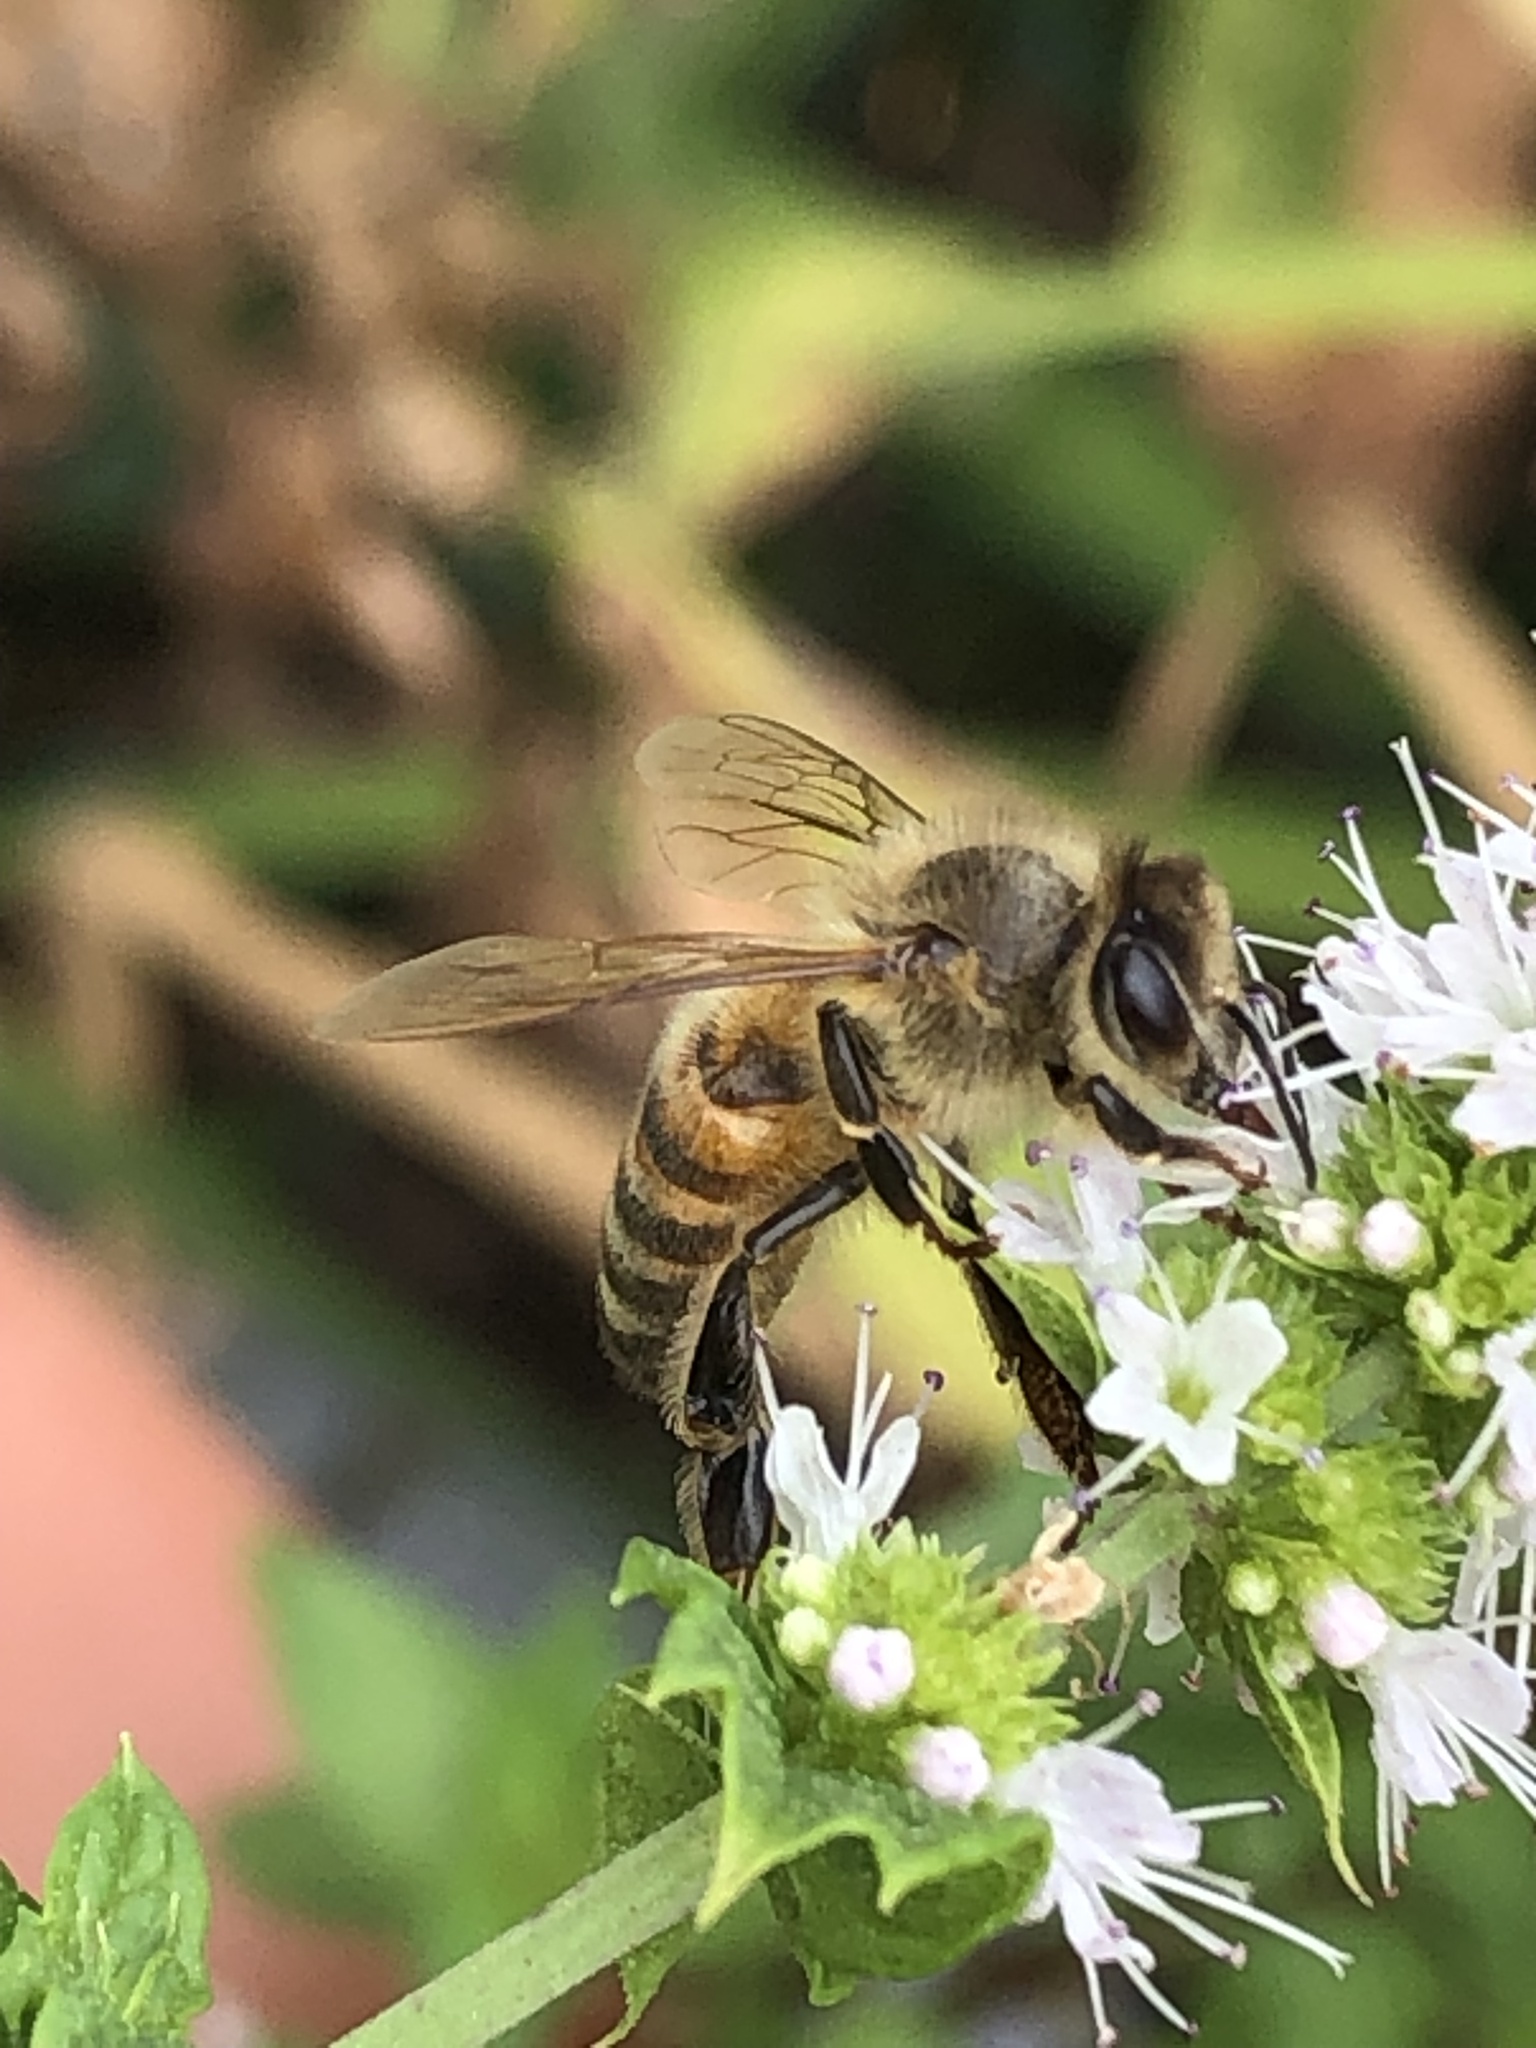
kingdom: Animalia
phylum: Arthropoda
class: Insecta
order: Hymenoptera
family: Apidae
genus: Apis
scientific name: Apis mellifera
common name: Honey bee
